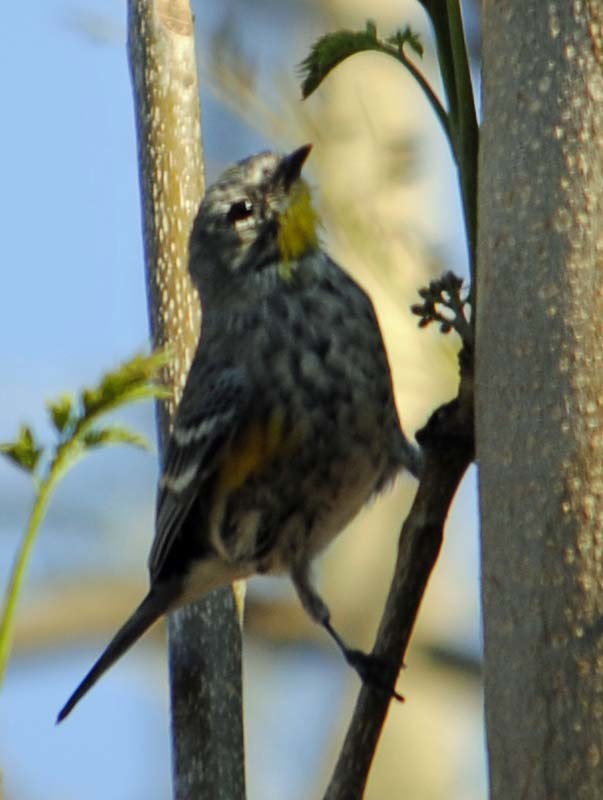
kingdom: Animalia
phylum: Chordata
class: Aves
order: Passeriformes
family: Parulidae
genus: Setophaga
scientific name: Setophaga auduboni
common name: Audubon's warbler
